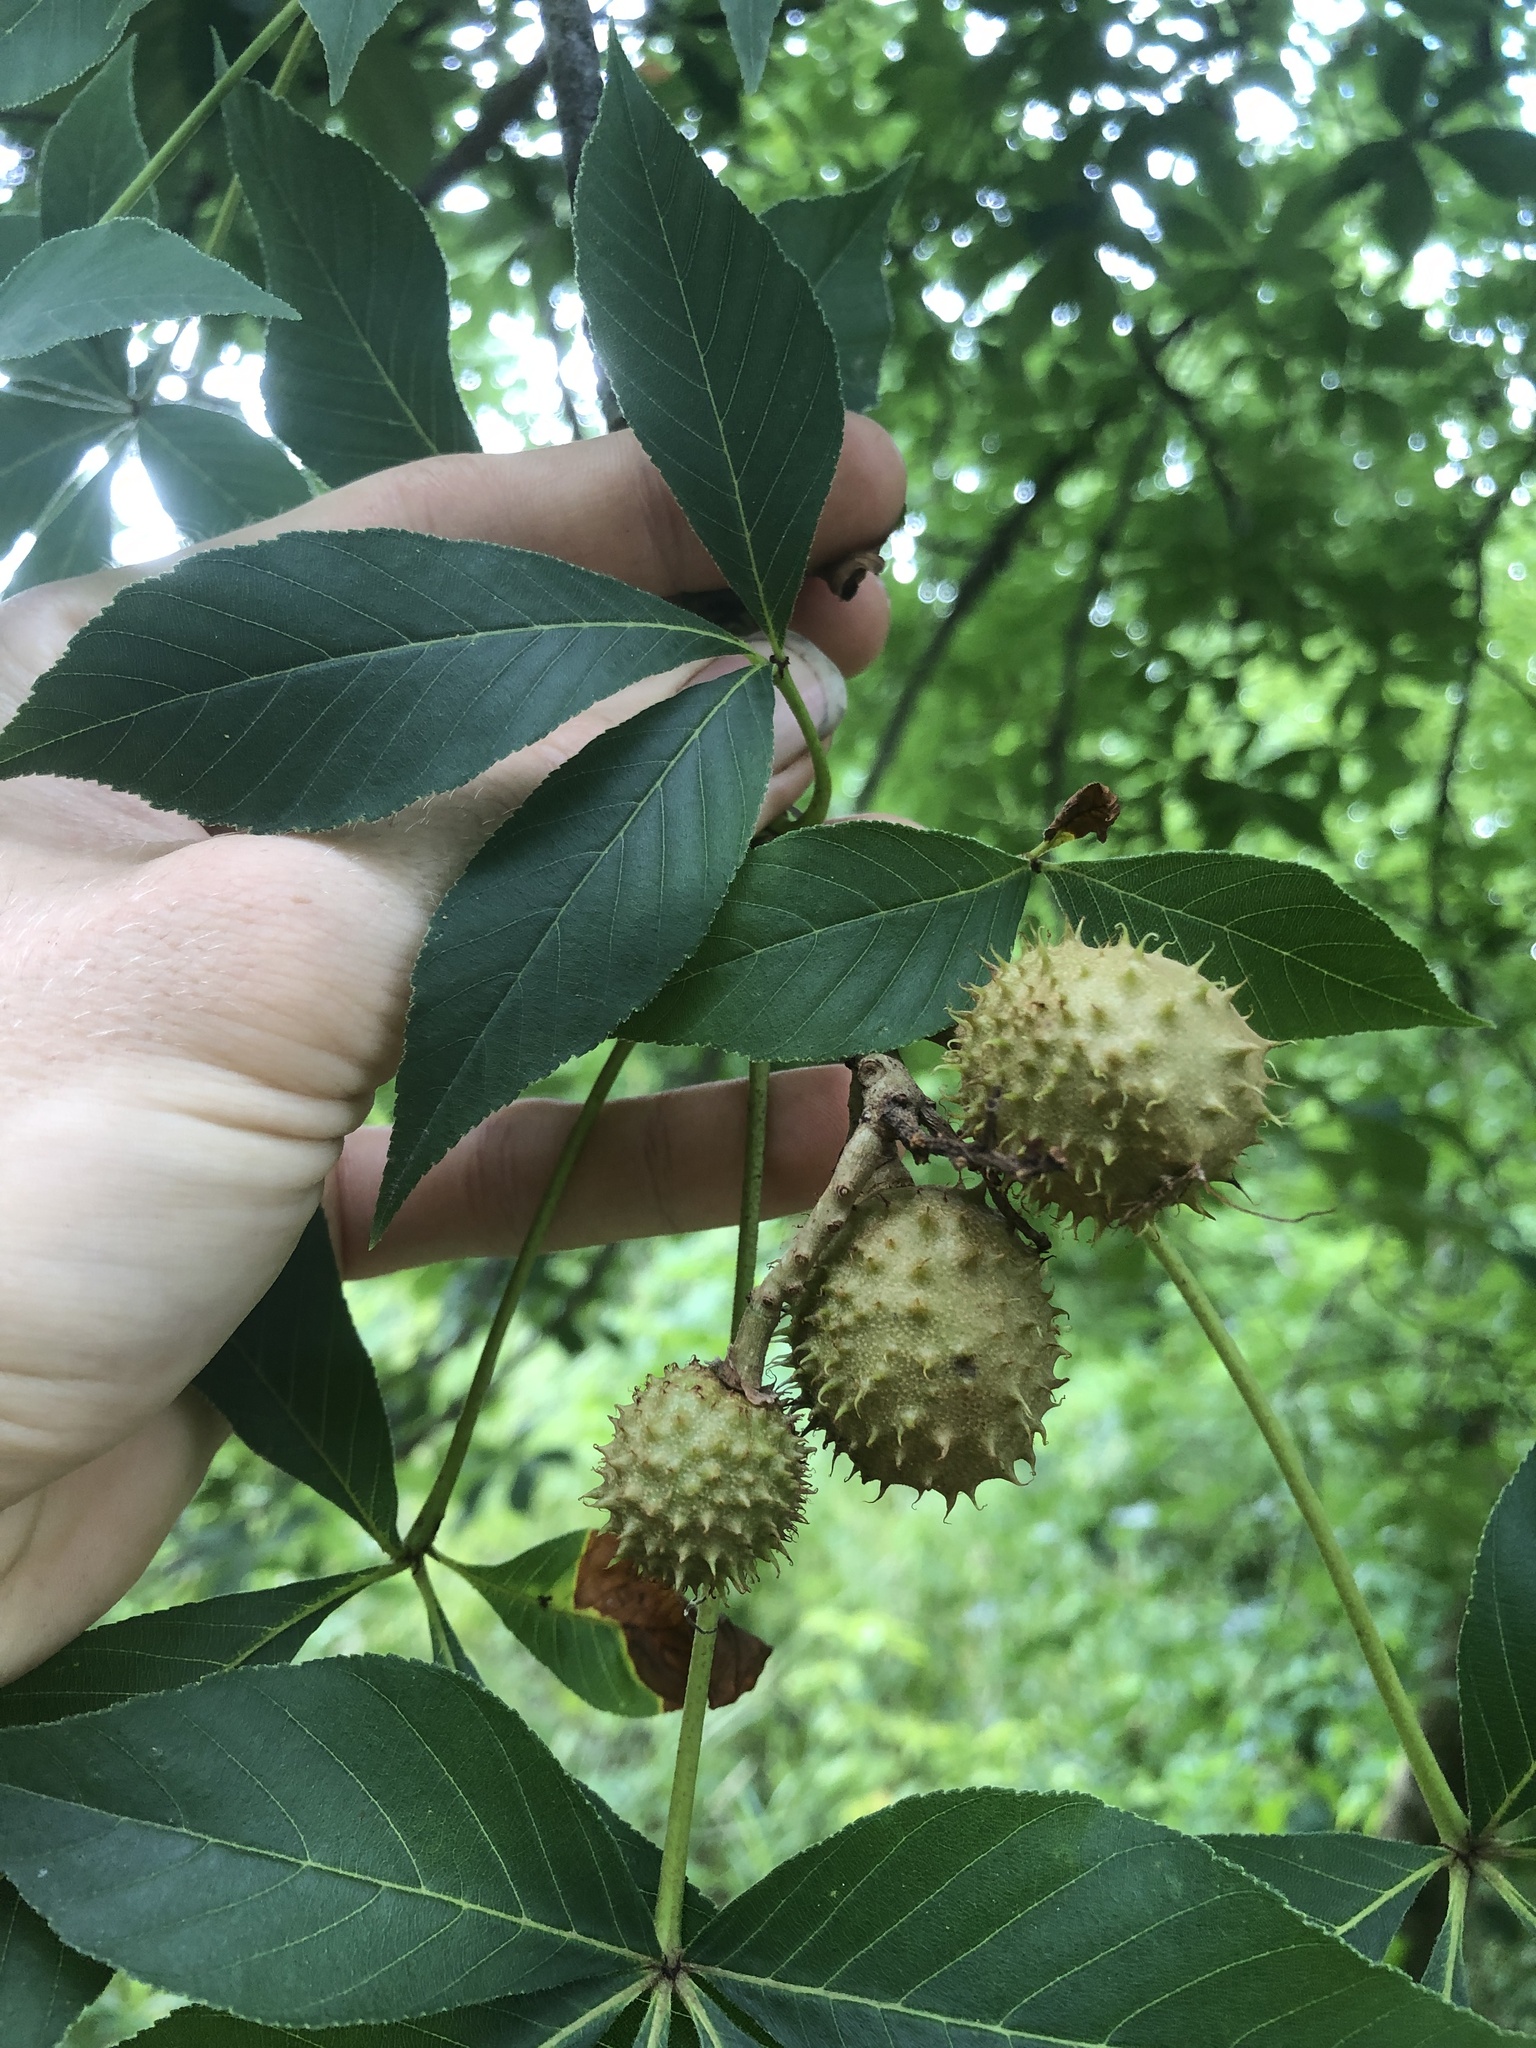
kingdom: Plantae
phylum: Tracheophyta
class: Magnoliopsida
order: Sapindales
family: Sapindaceae
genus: Aesculus
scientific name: Aesculus glabra
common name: Ohio buckeye
